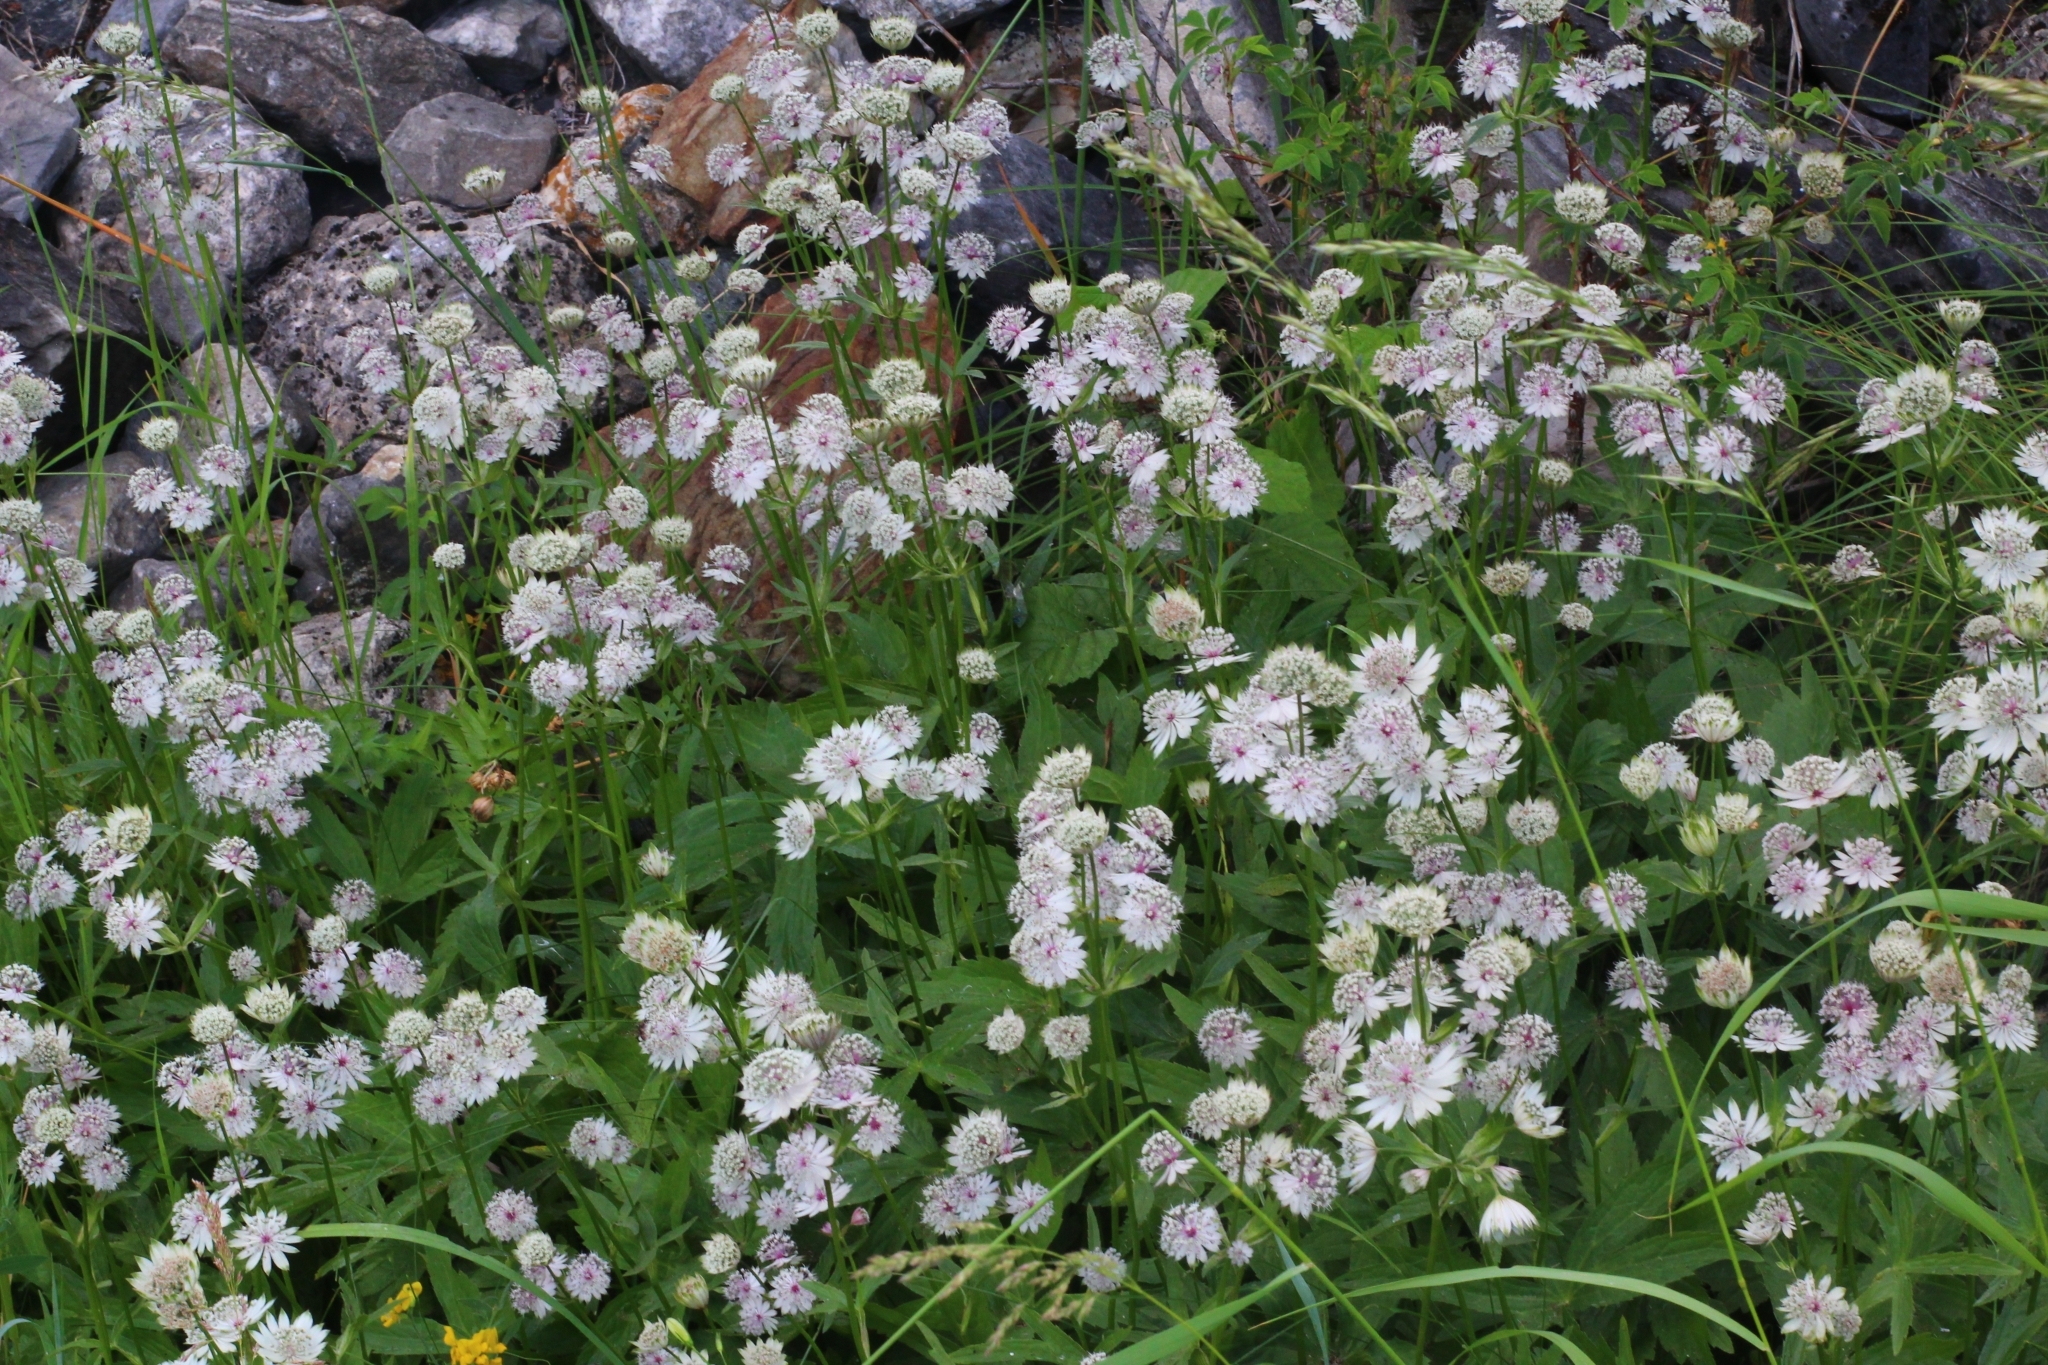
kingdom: Plantae
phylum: Tracheophyta
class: Magnoliopsida
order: Apiales
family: Apiaceae
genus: Astrantia
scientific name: Astrantia major
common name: Greater masterwort
